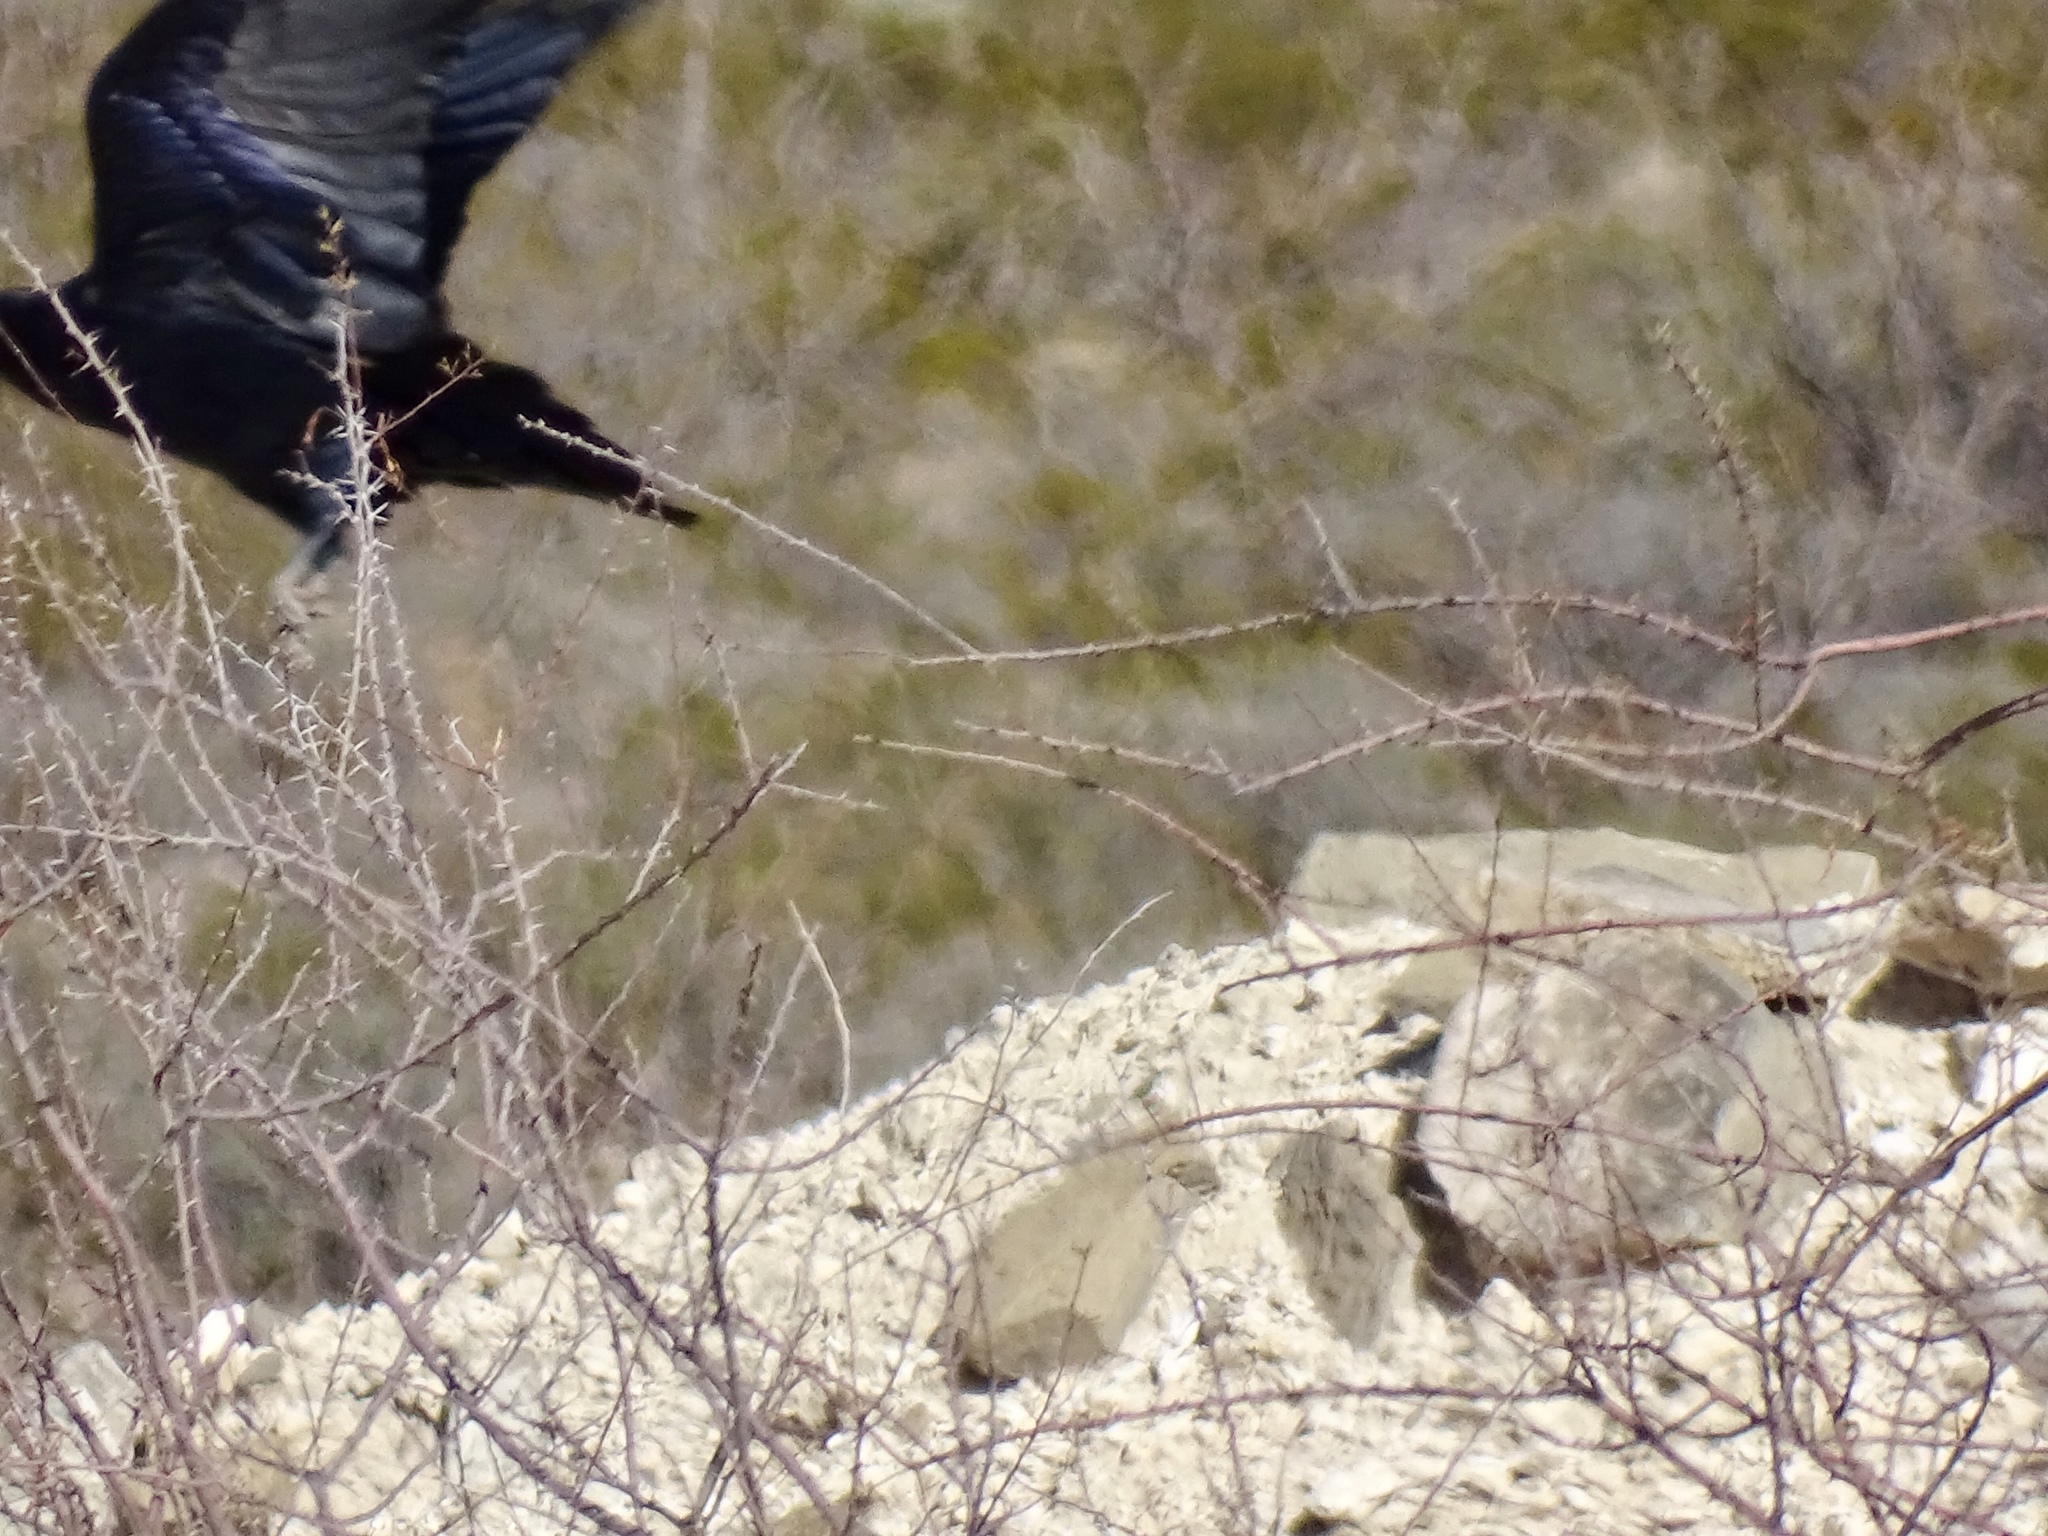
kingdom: Animalia
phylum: Chordata
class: Aves
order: Passeriformes
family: Corvidae
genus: Corvus
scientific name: Corvus corax
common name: Common raven
